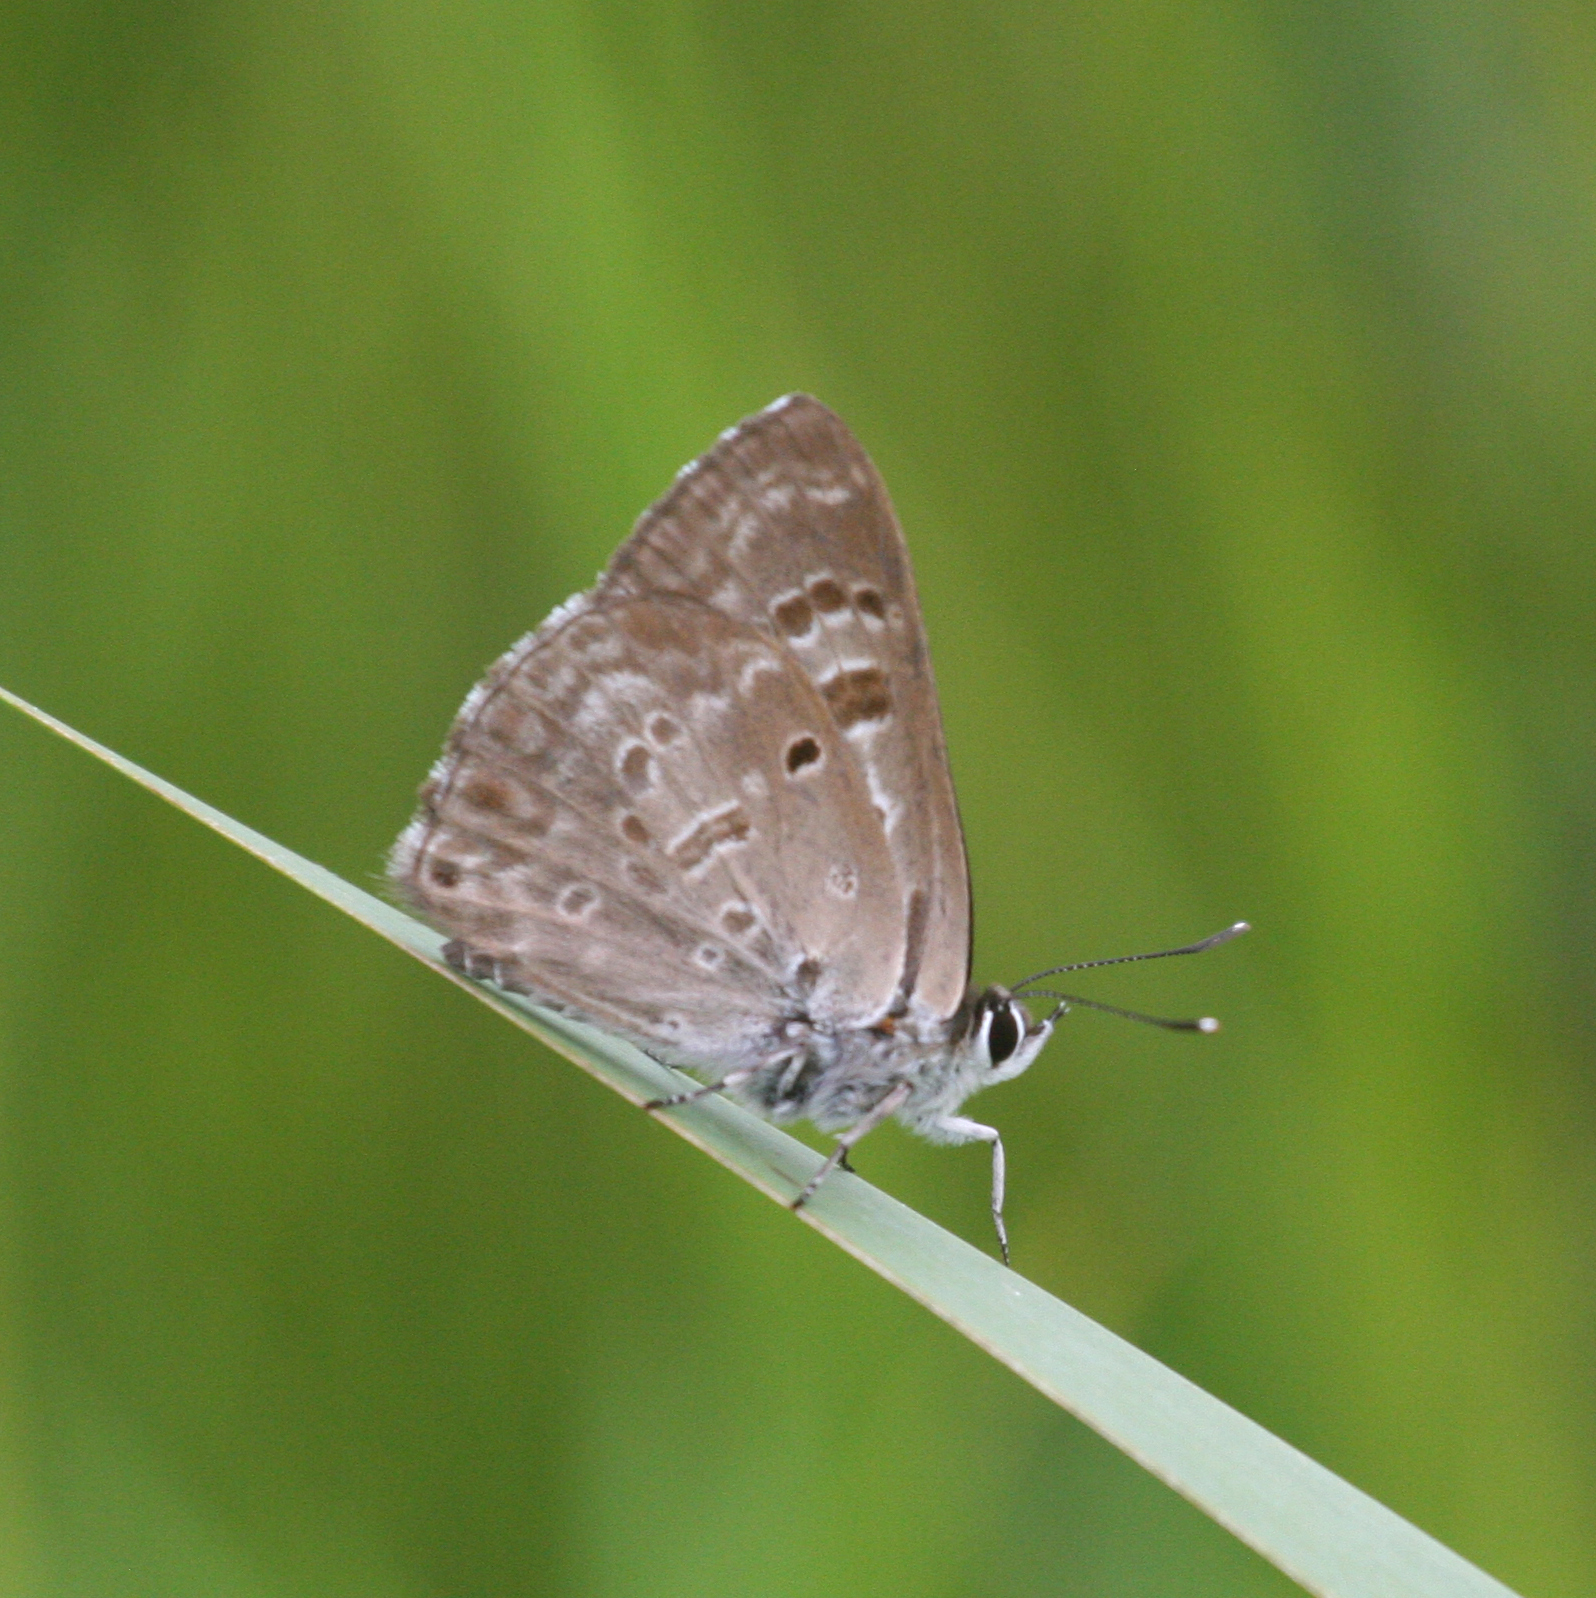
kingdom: Animalia
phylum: Arthropoda
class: Insecta
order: Lepidoptera
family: Lycaenidae
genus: Niphanda
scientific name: Niphanda fusca
